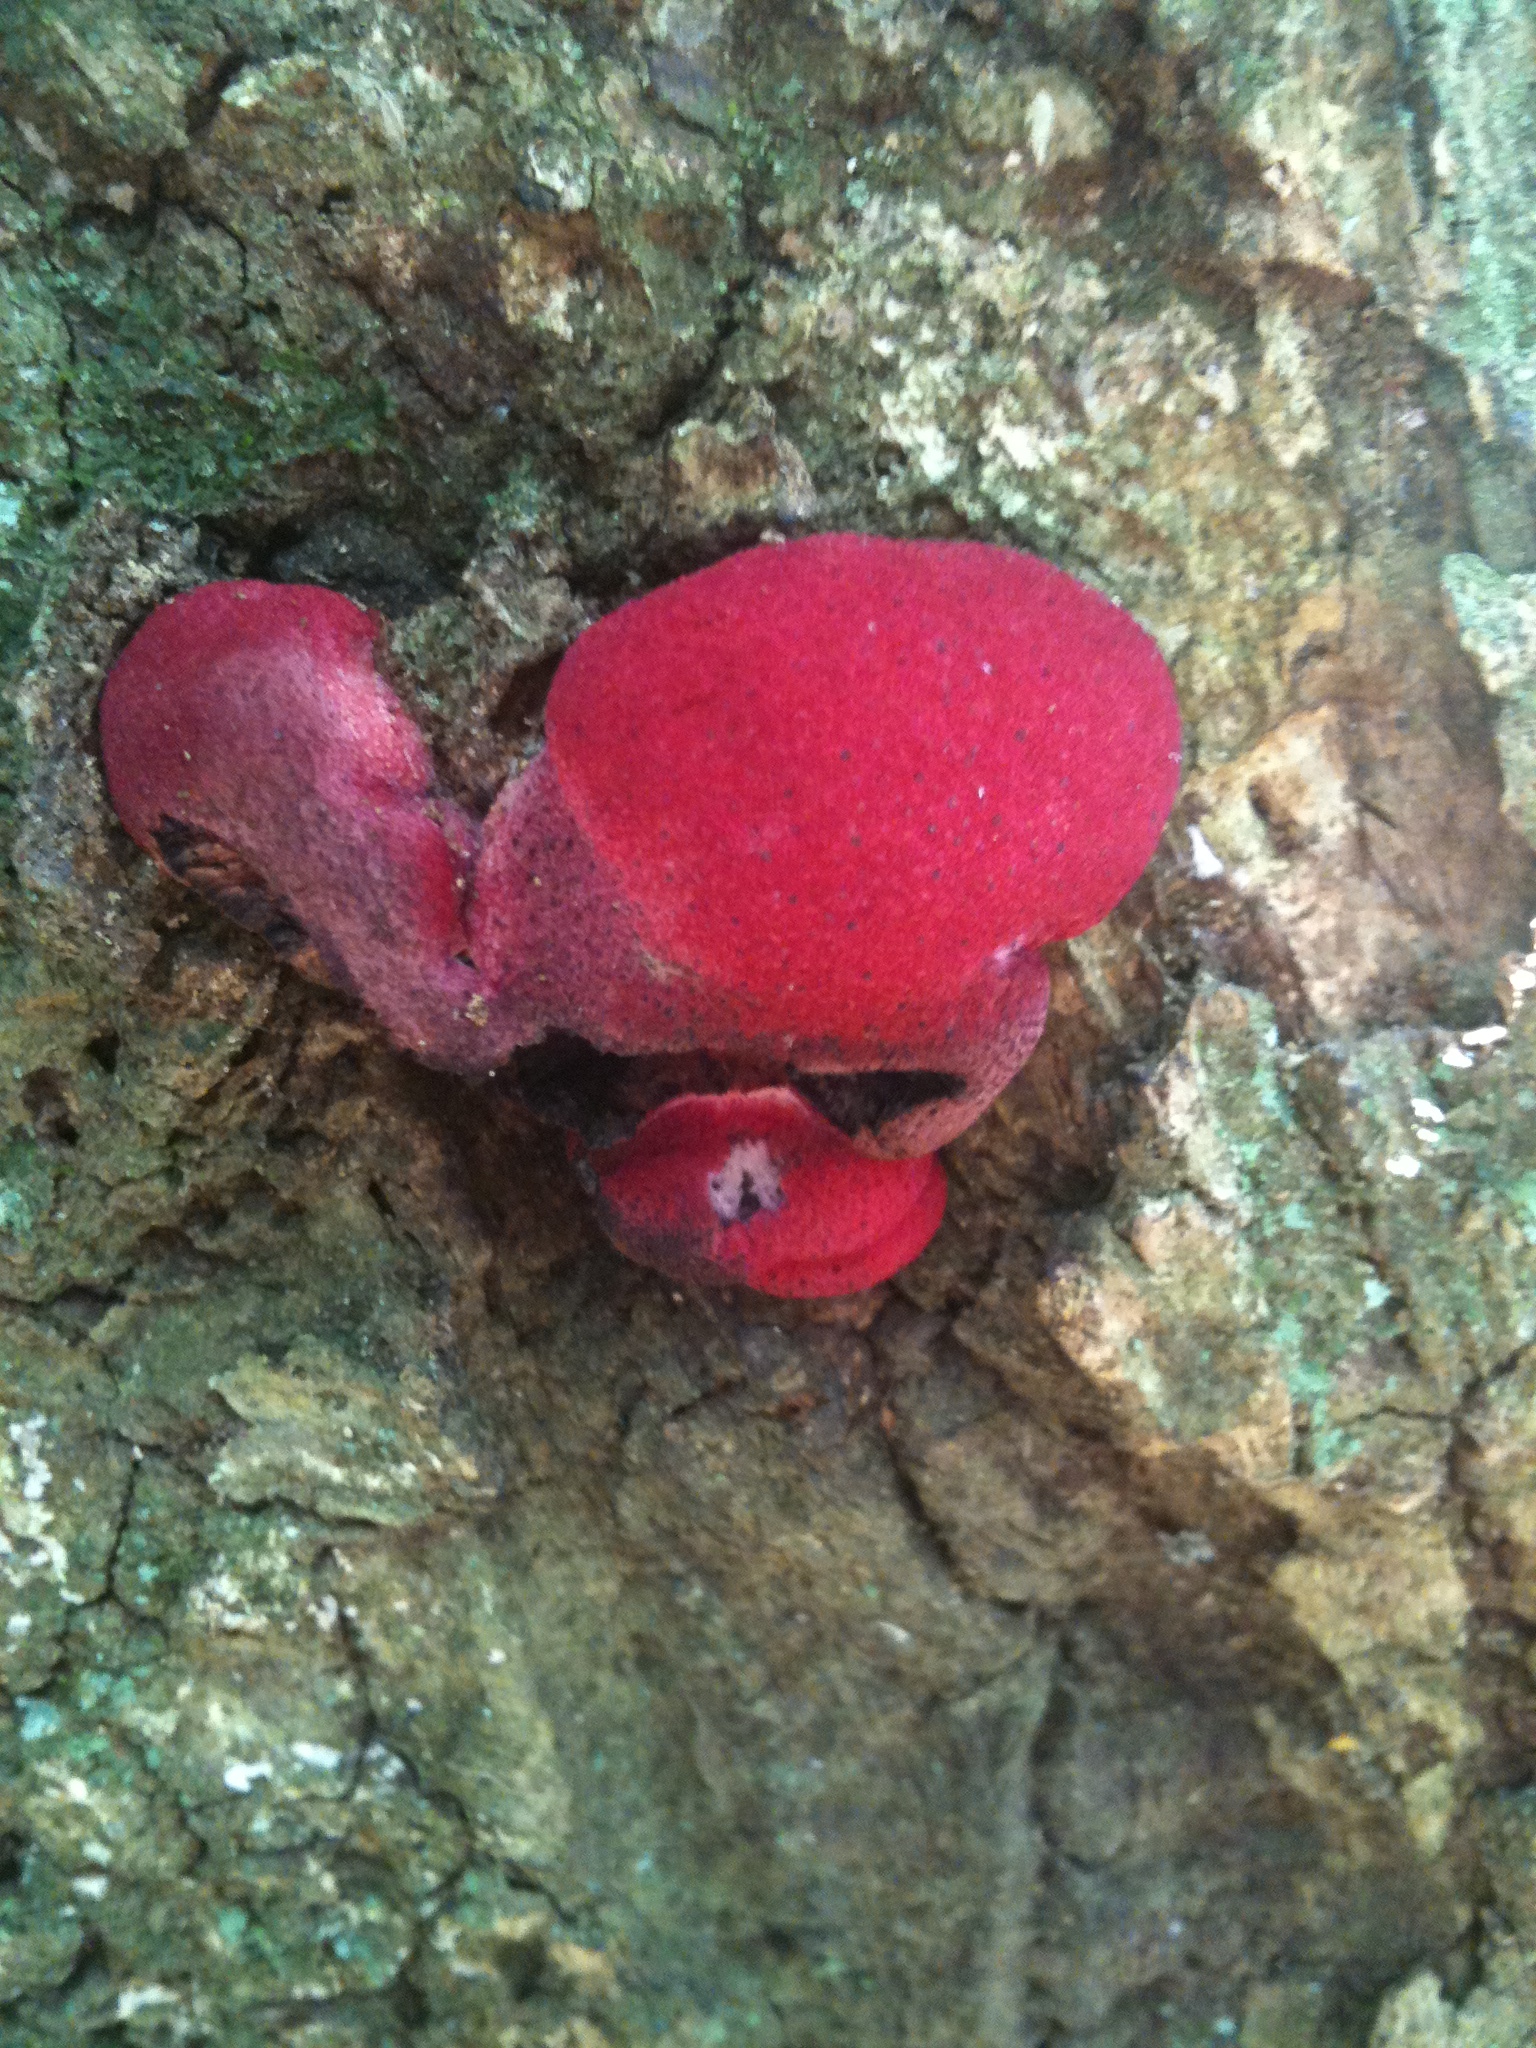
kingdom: Fungi
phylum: Basidiomycota
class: Agaricomycetes
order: Agaricales
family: Fistulinaceae
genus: Fistulina
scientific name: Fistulina hepatica
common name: Beef-steak fungus
